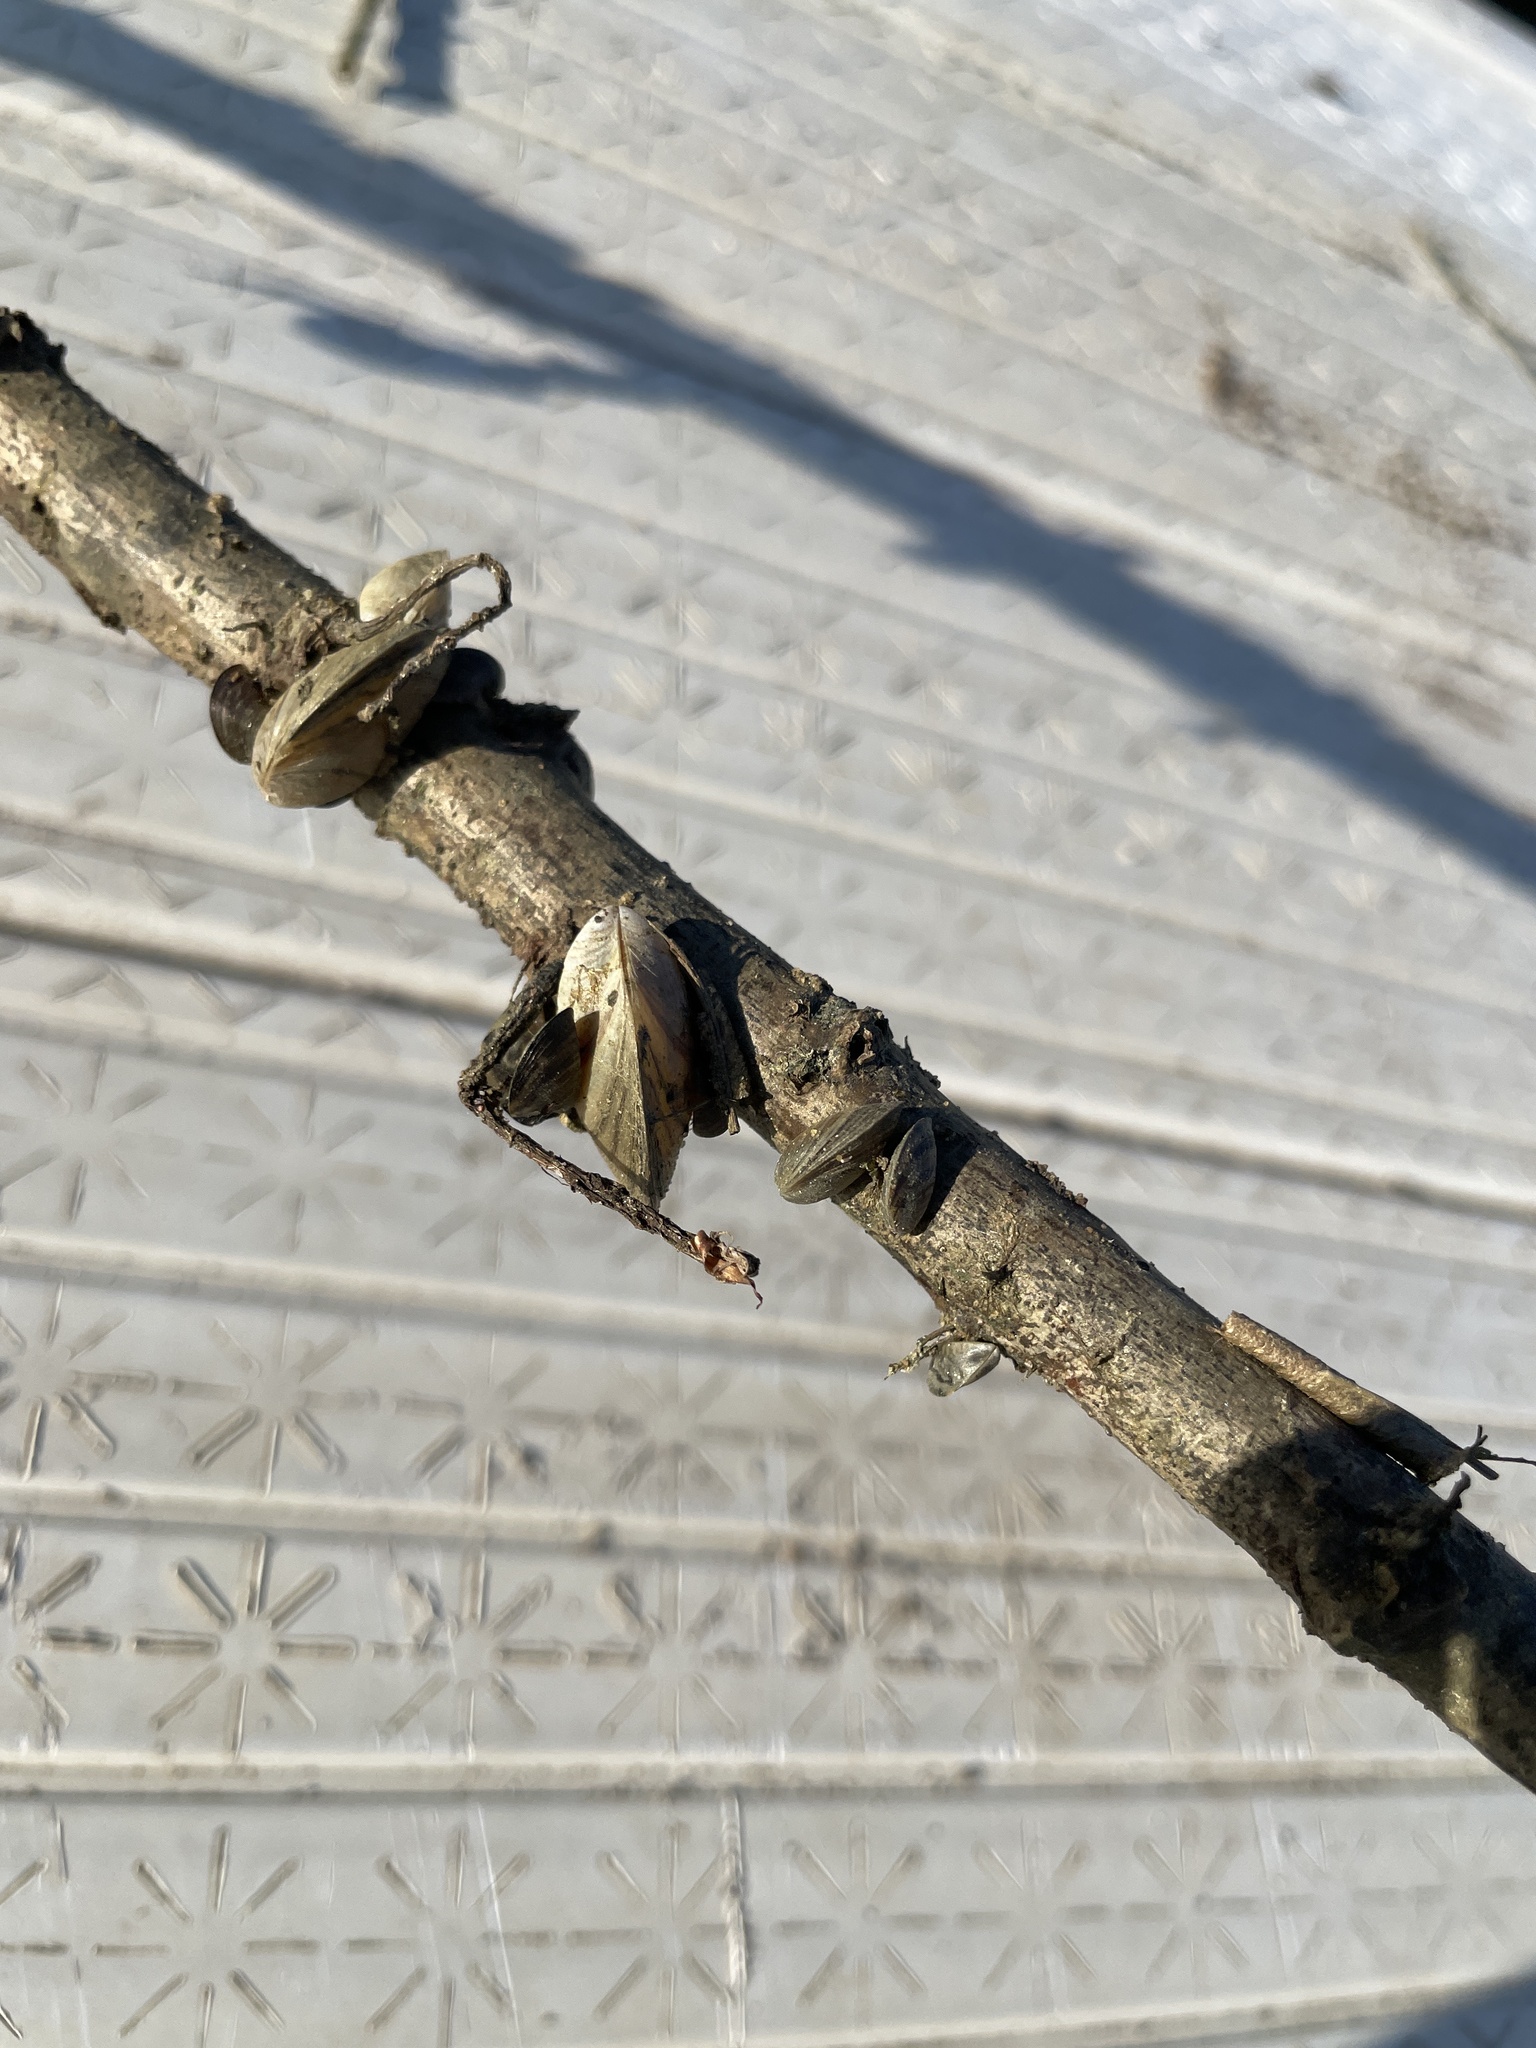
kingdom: Animalia
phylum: Mollusca
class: Bivalvia
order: Myida
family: Dreissenidae
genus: Dreissena
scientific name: Dreissena polymorpha
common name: Zebra mussel
